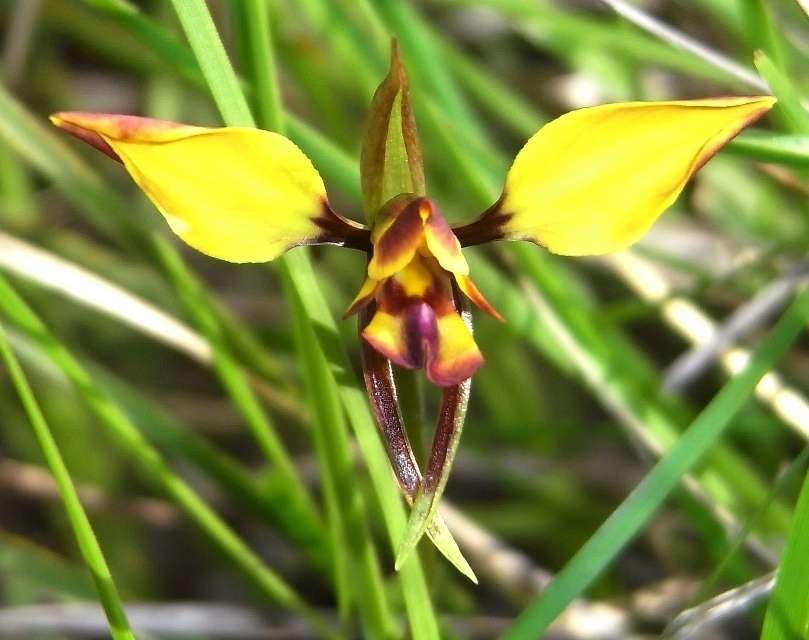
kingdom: Plantae
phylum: Tracheophyta
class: Liliopsida
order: Asparagales
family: Orchidaceae
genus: Diuris
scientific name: Diuris orientis
